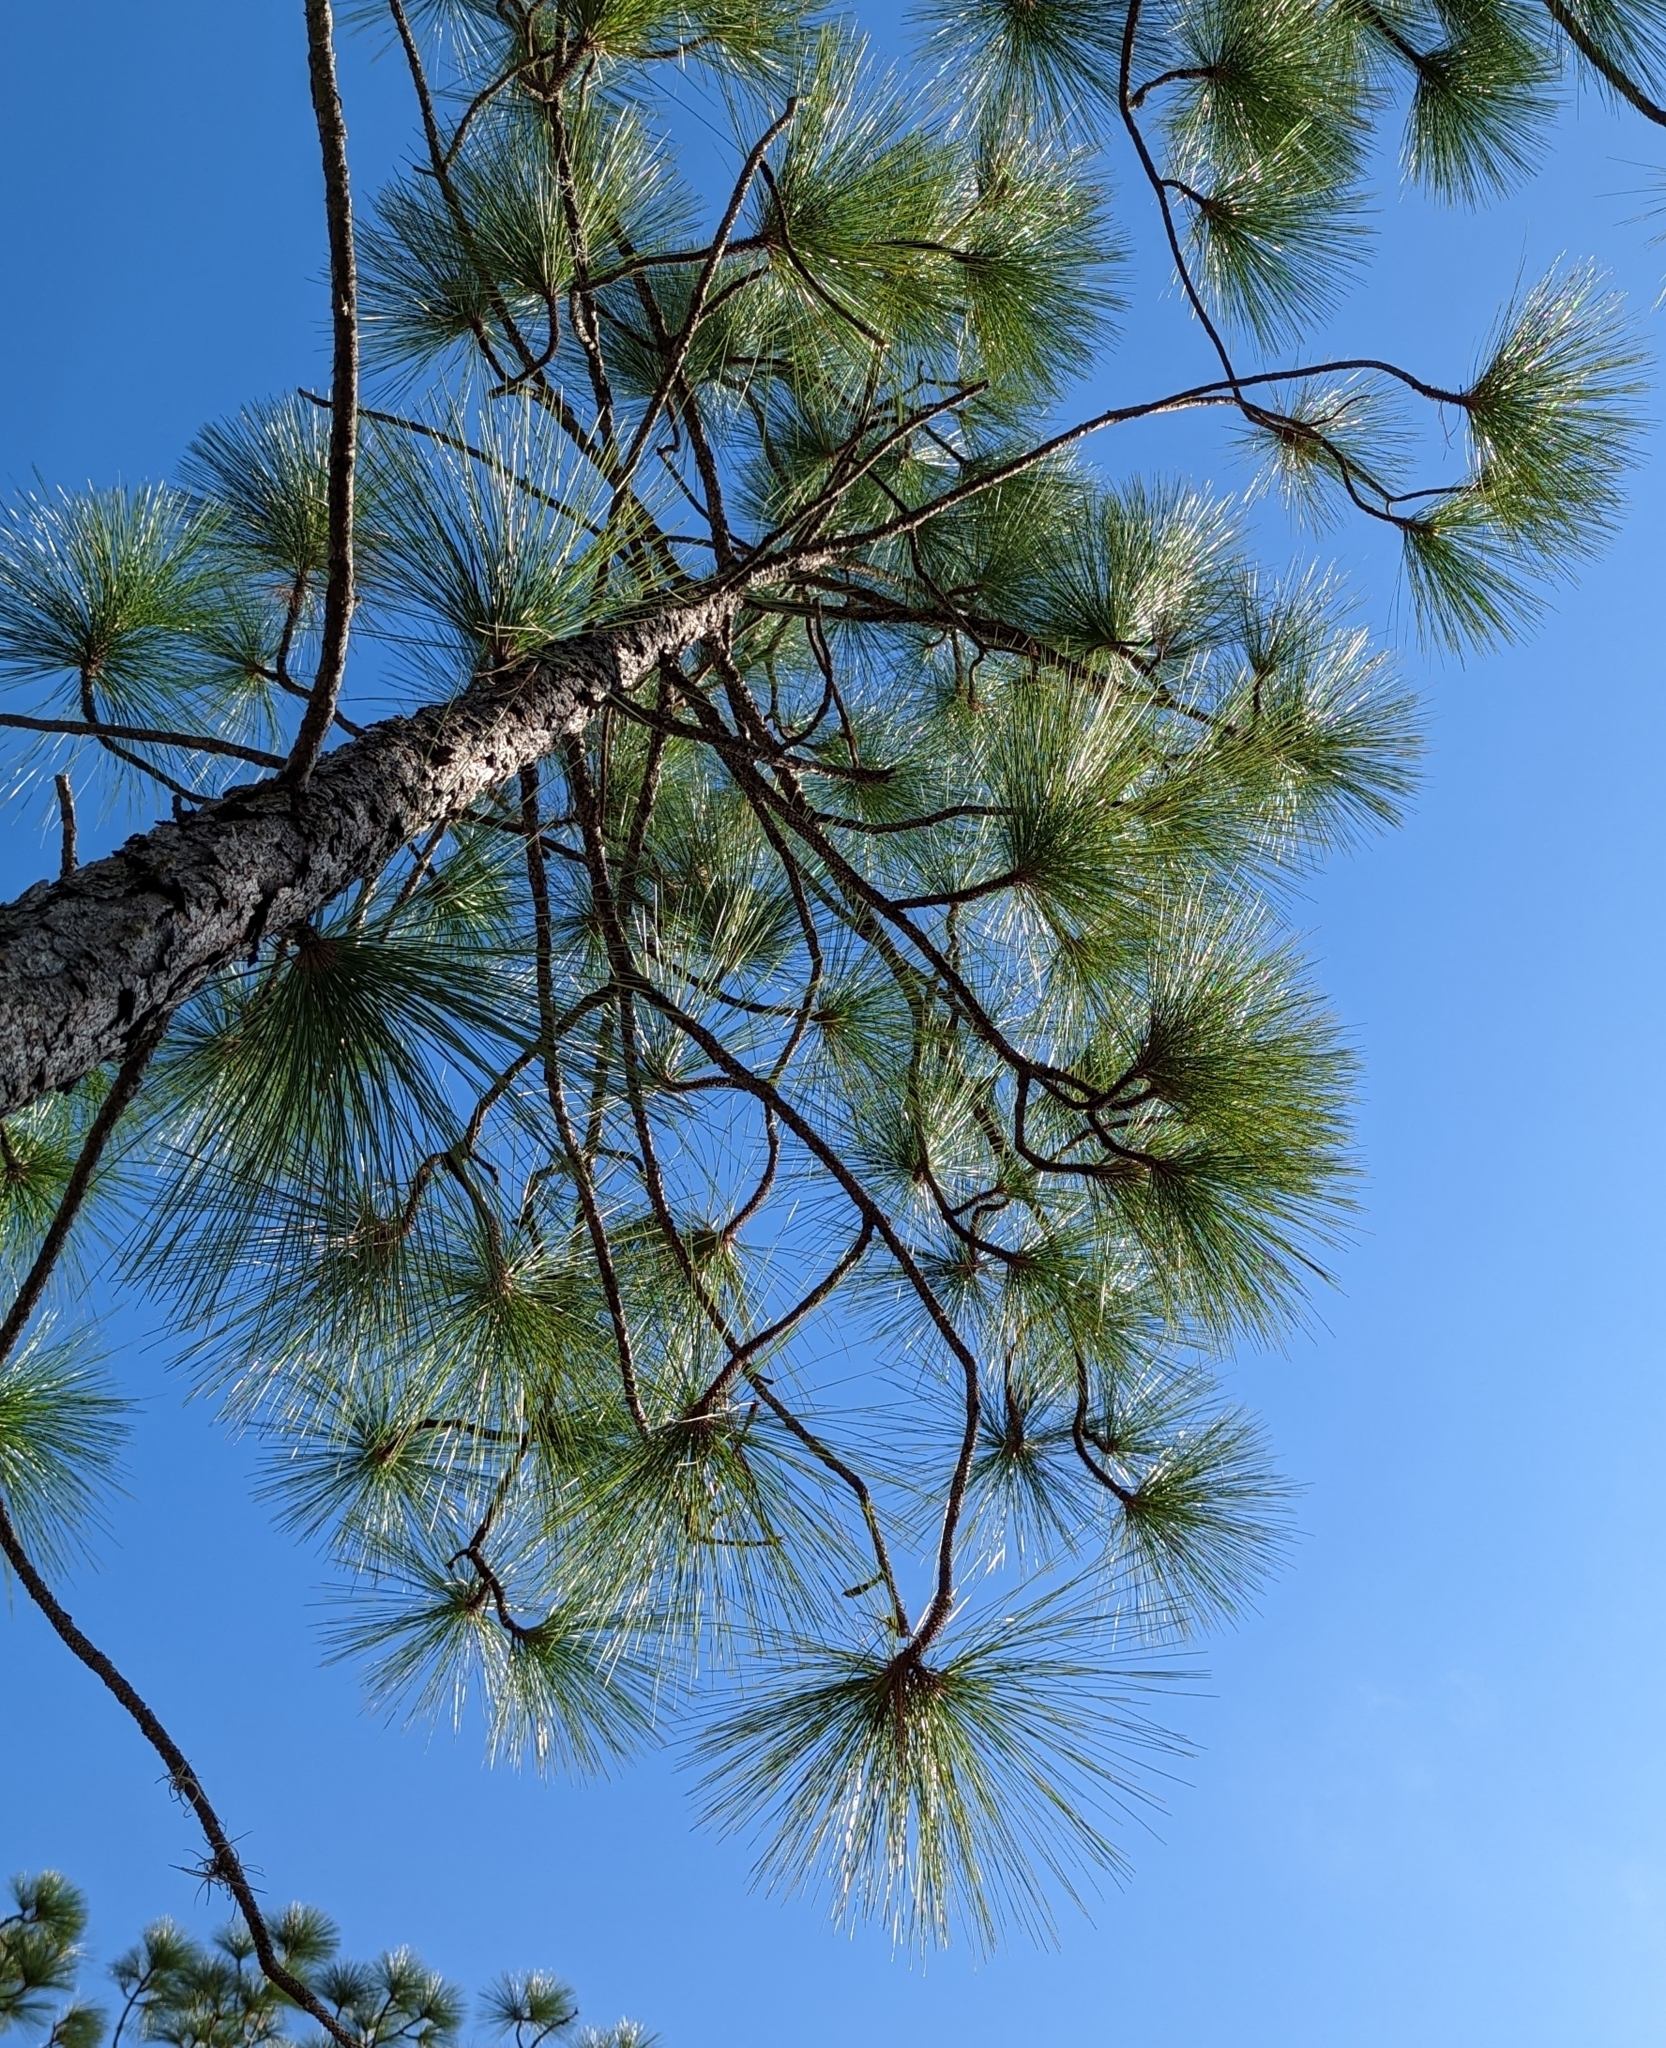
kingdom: Plantae
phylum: Tracheophyta
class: Pinopsida
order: Pinales
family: Pinaceae
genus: Pinus
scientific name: Pinus palustris
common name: Longleaf pine
